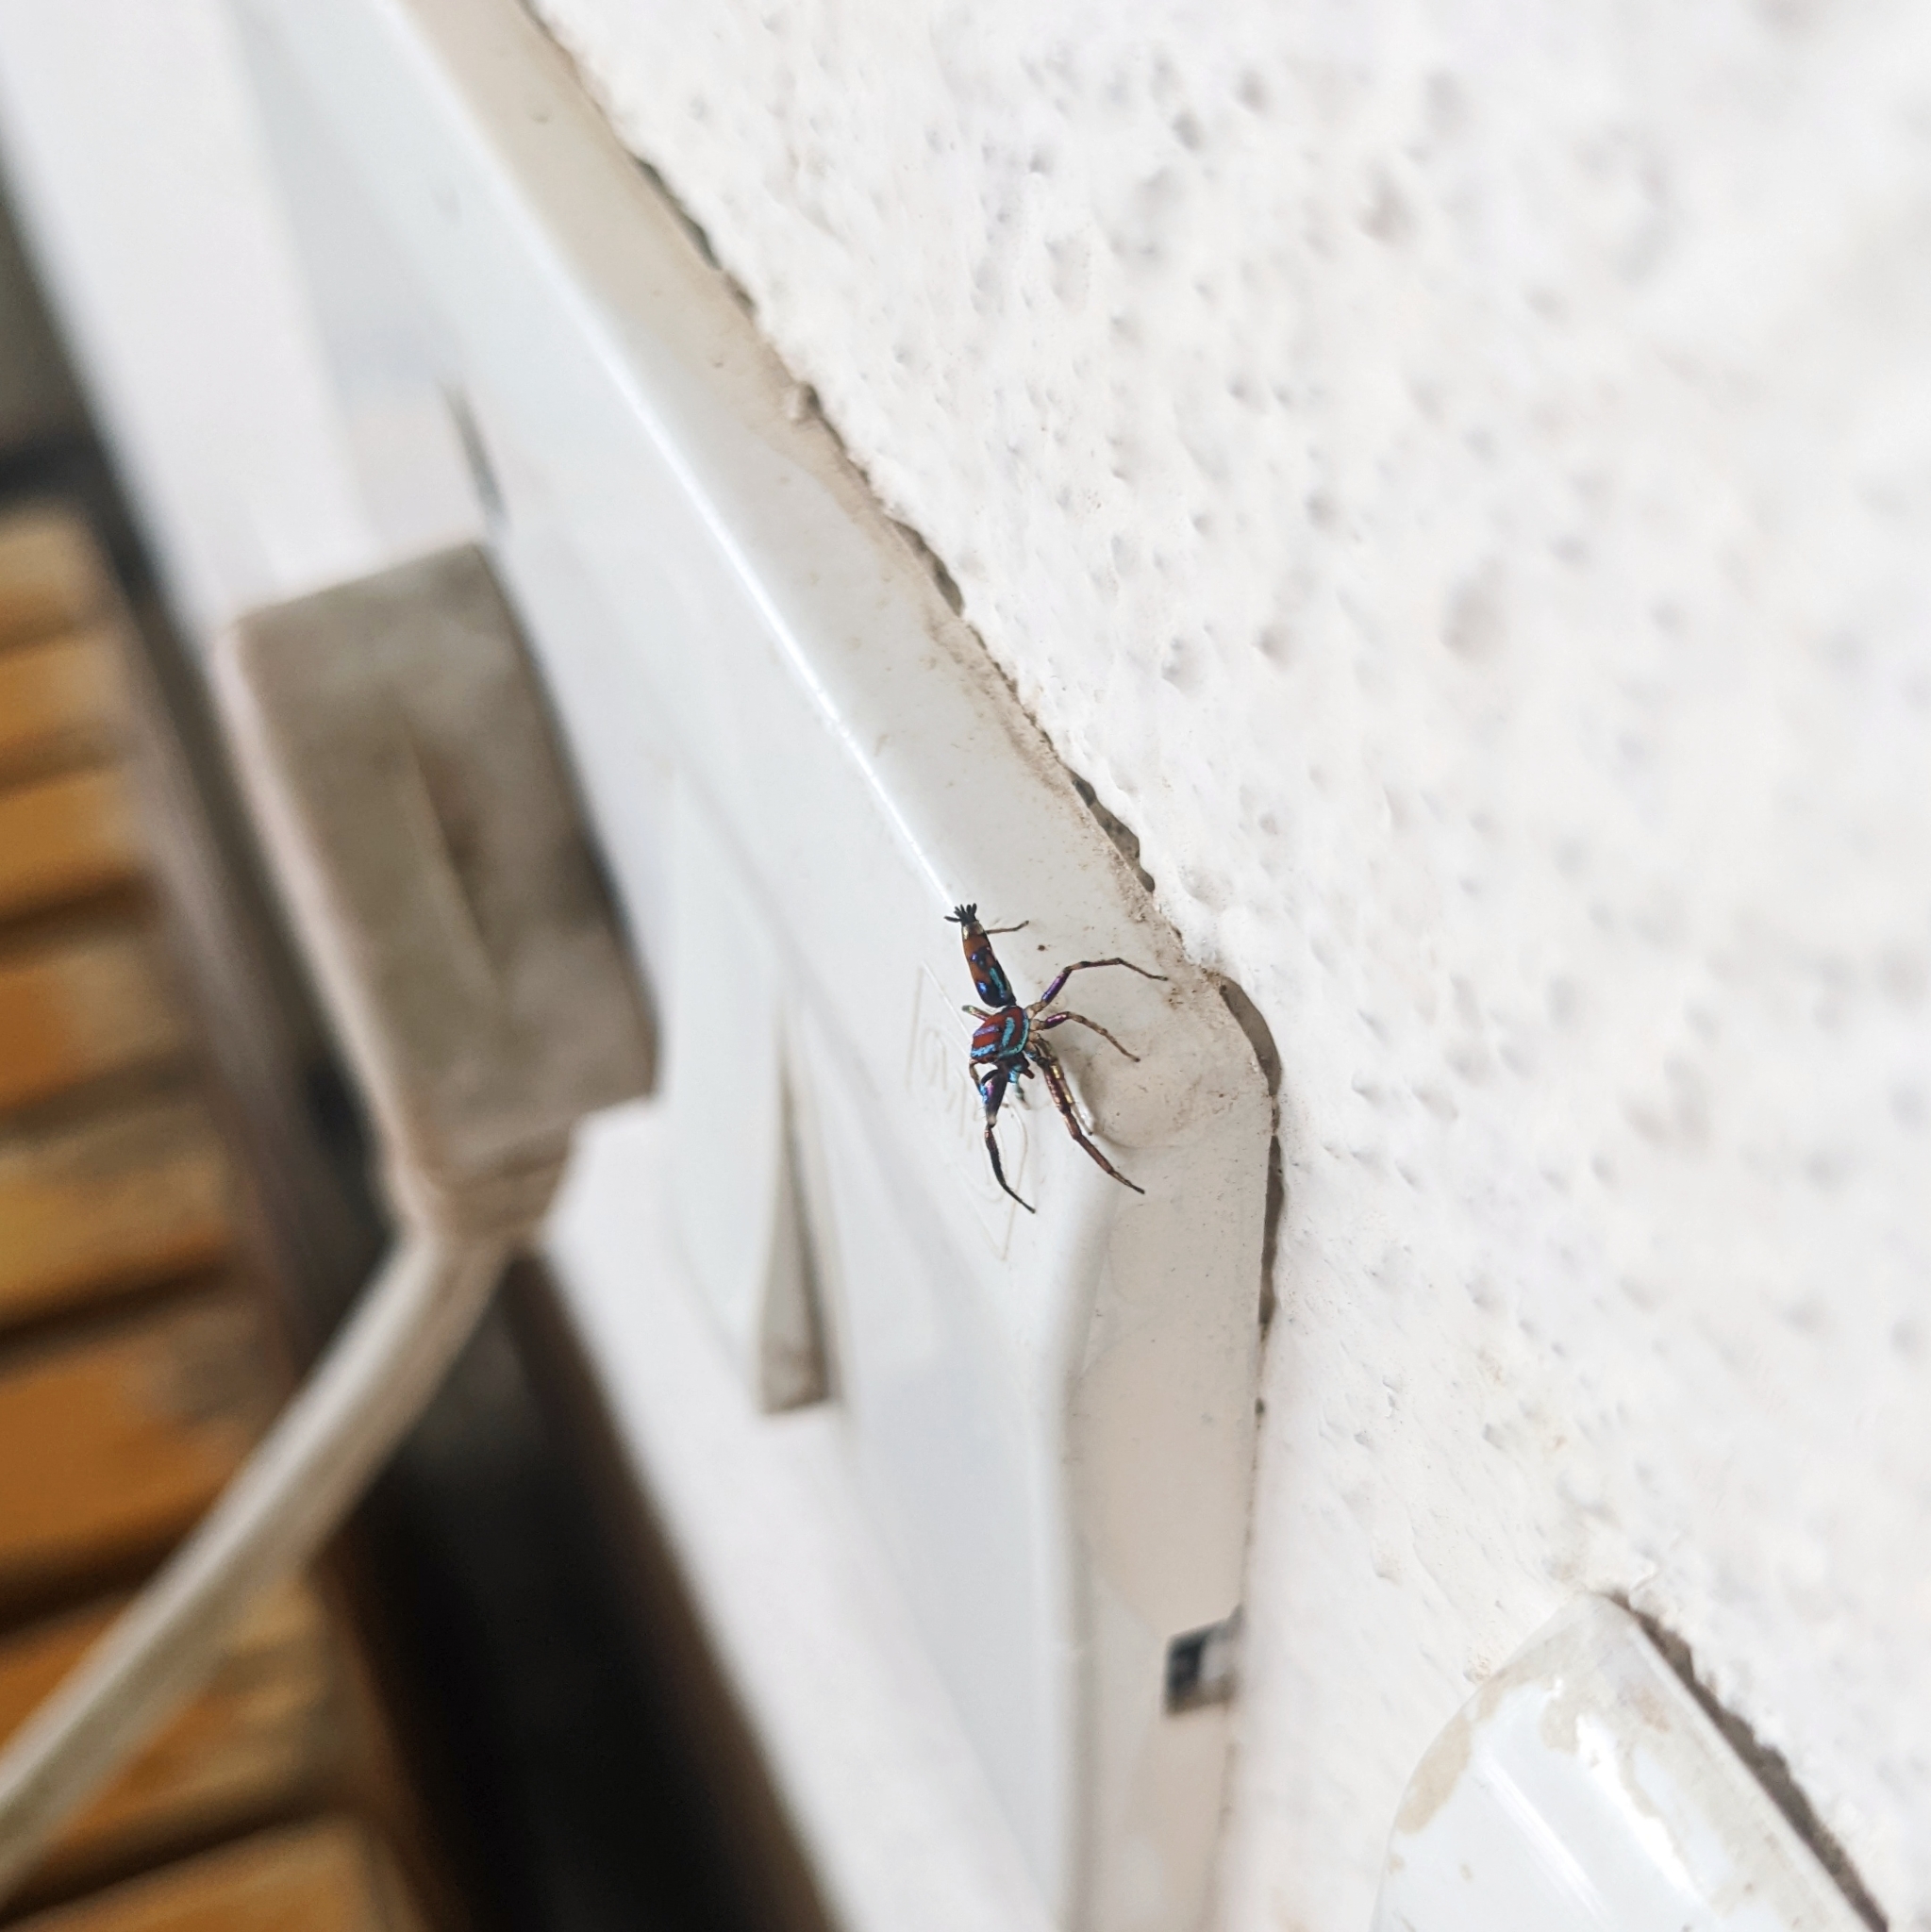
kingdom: Animalia
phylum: Arthropoda
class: Arachnida
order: Araneae
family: Salticidae
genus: Chrysilla
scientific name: Chrysilla volupe
